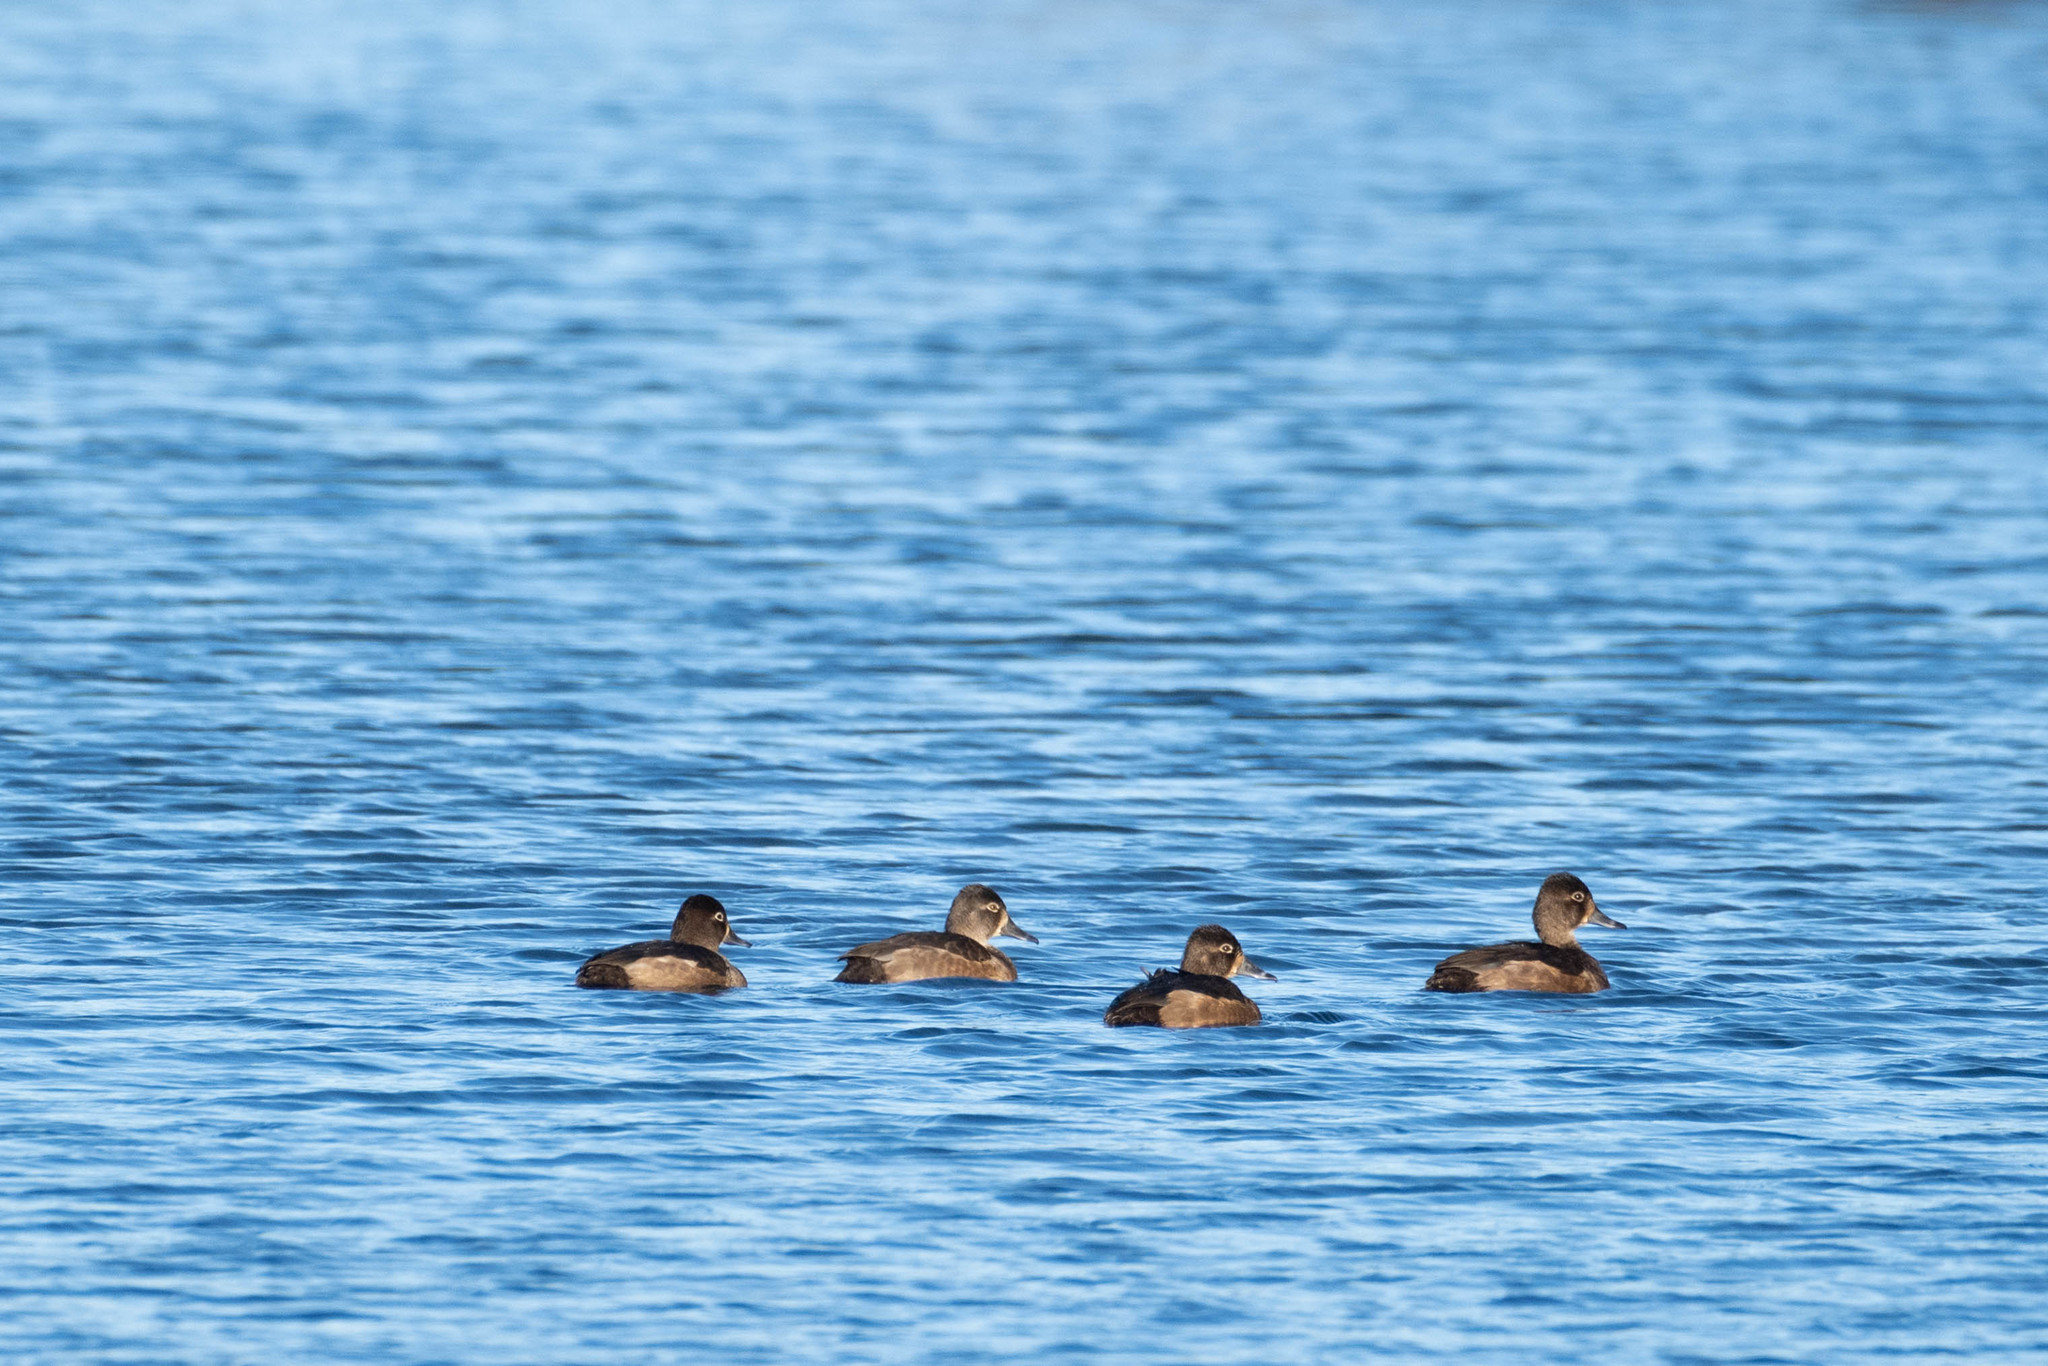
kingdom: Animalia
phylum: Chordata
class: Aves
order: Anseriformes
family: Anatidae
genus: Aythya
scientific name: Aythya collaris
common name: Ring-necked duck
